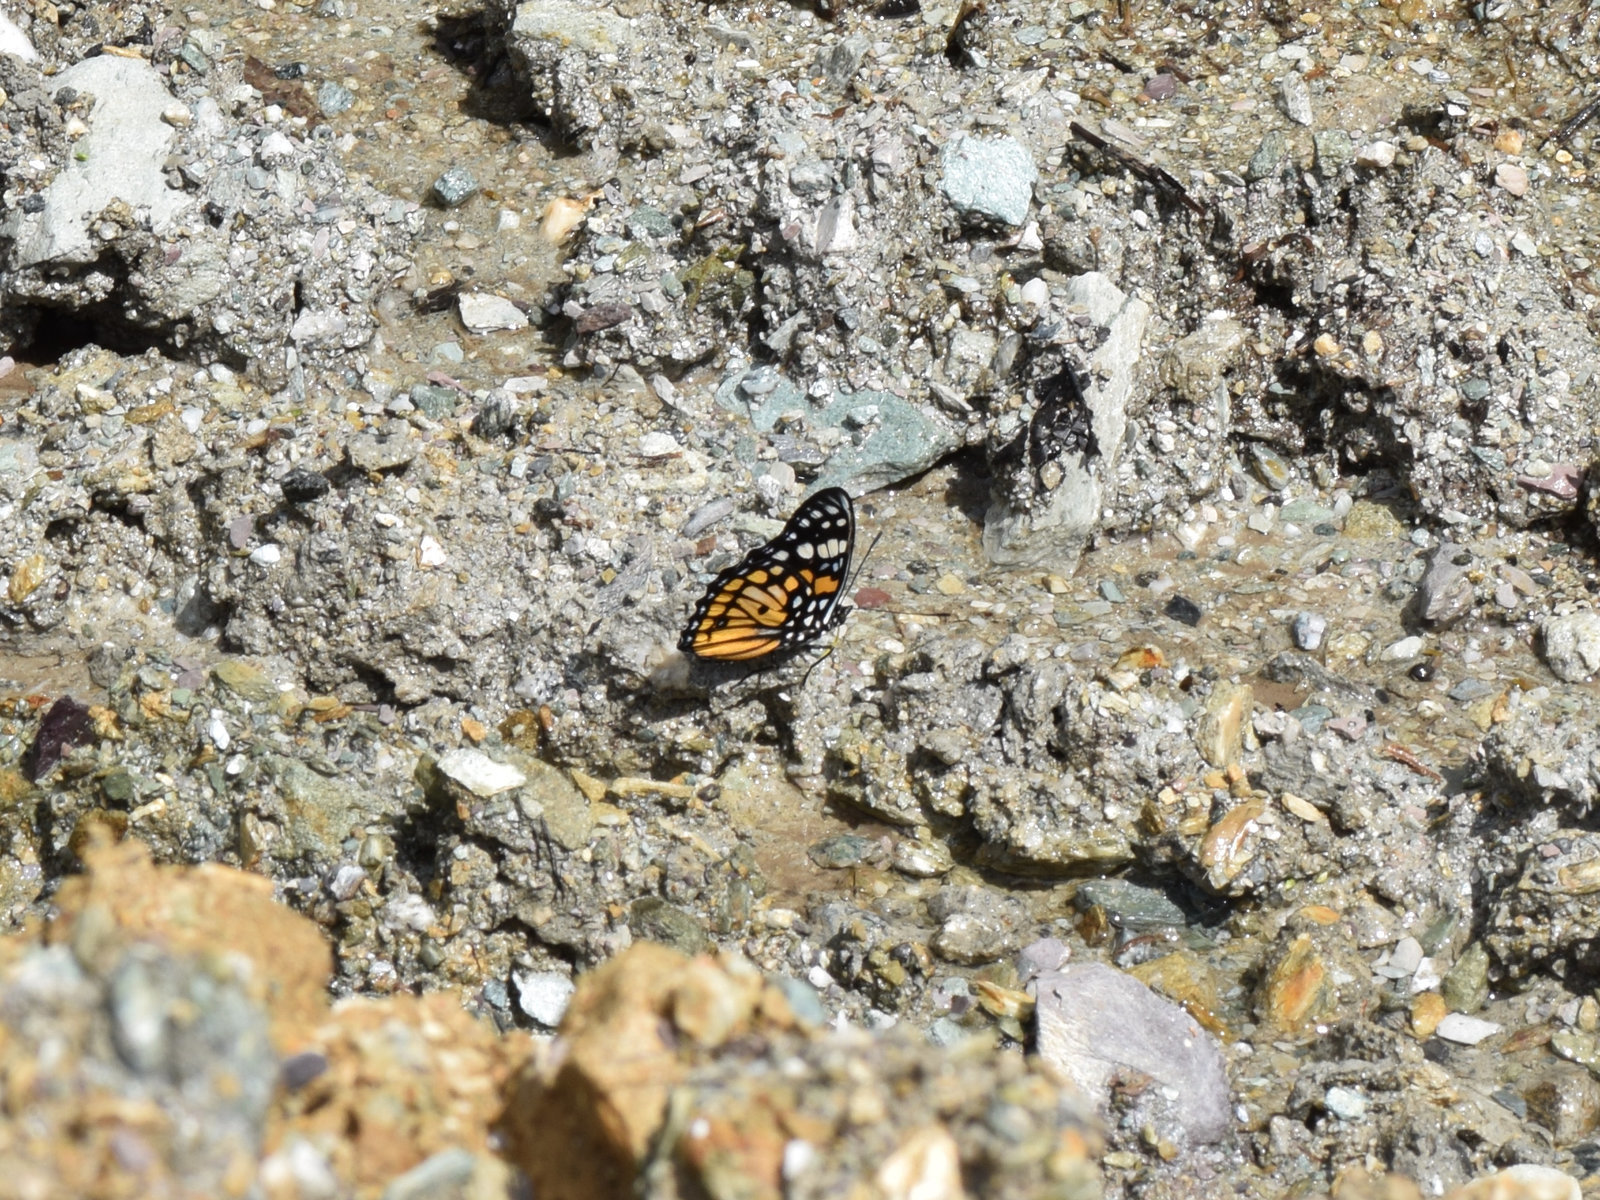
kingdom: Animalia
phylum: Arthropoda
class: Insecta
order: Lepidoptera
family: Nymphalidae
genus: Sephisa
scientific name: Sephisa chandra
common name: Eastern courtier
